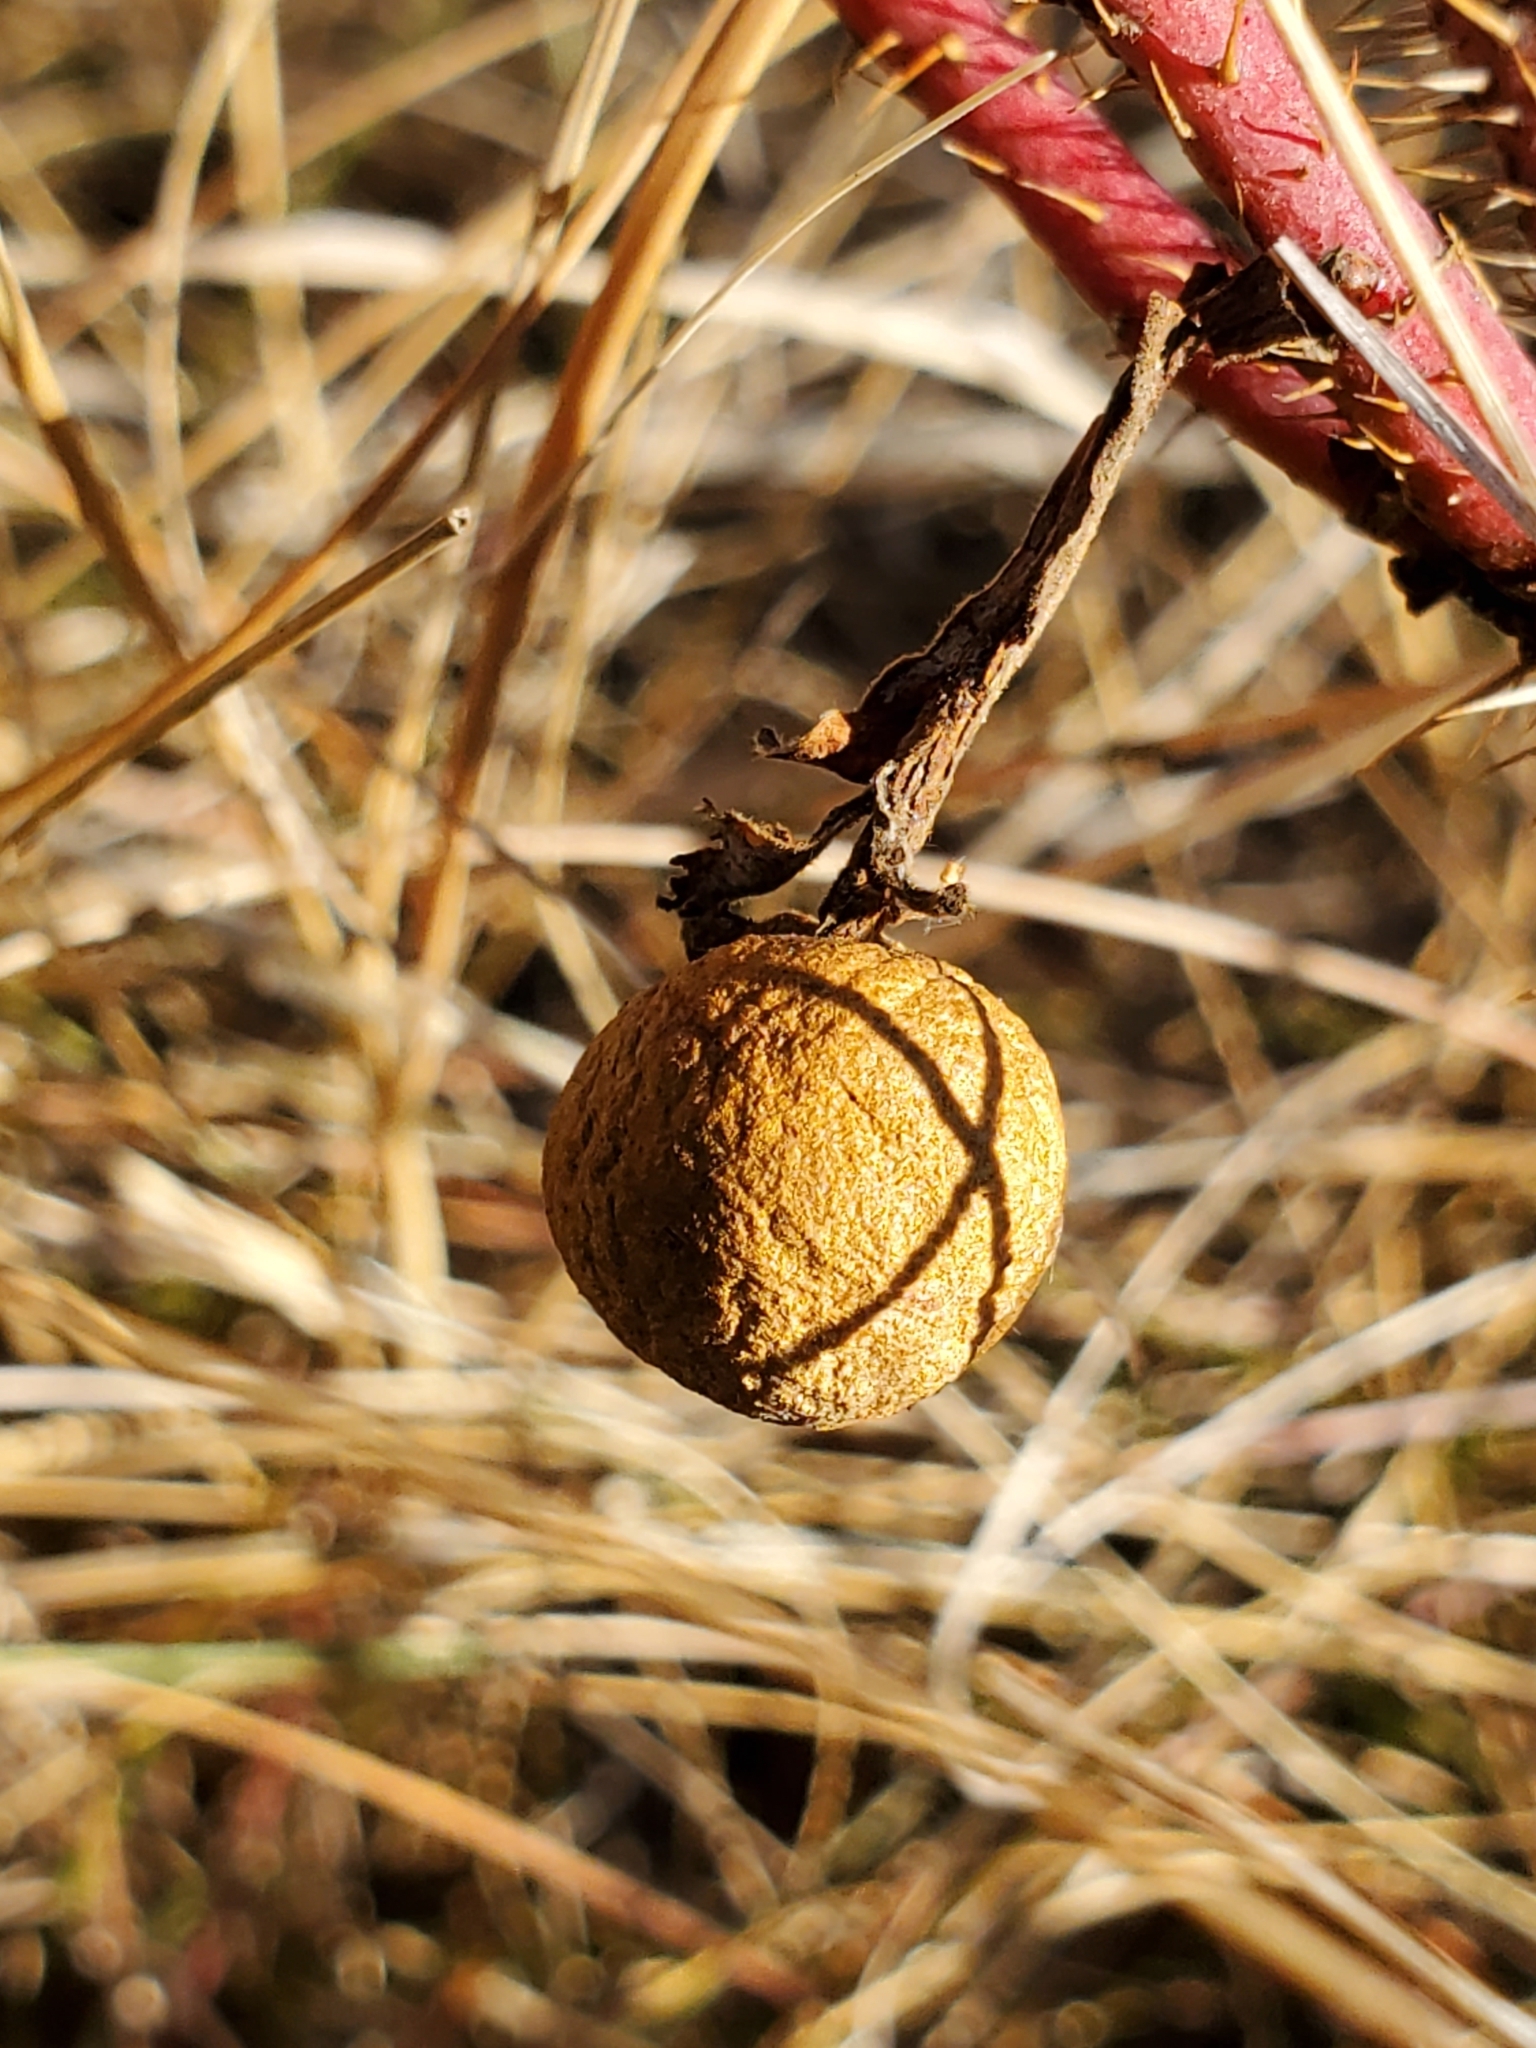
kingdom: Animalia
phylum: Arthropoda
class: Insecta
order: Hymenoptera
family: Cynipidae
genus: Diplolepis
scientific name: Diplolepis ignota
